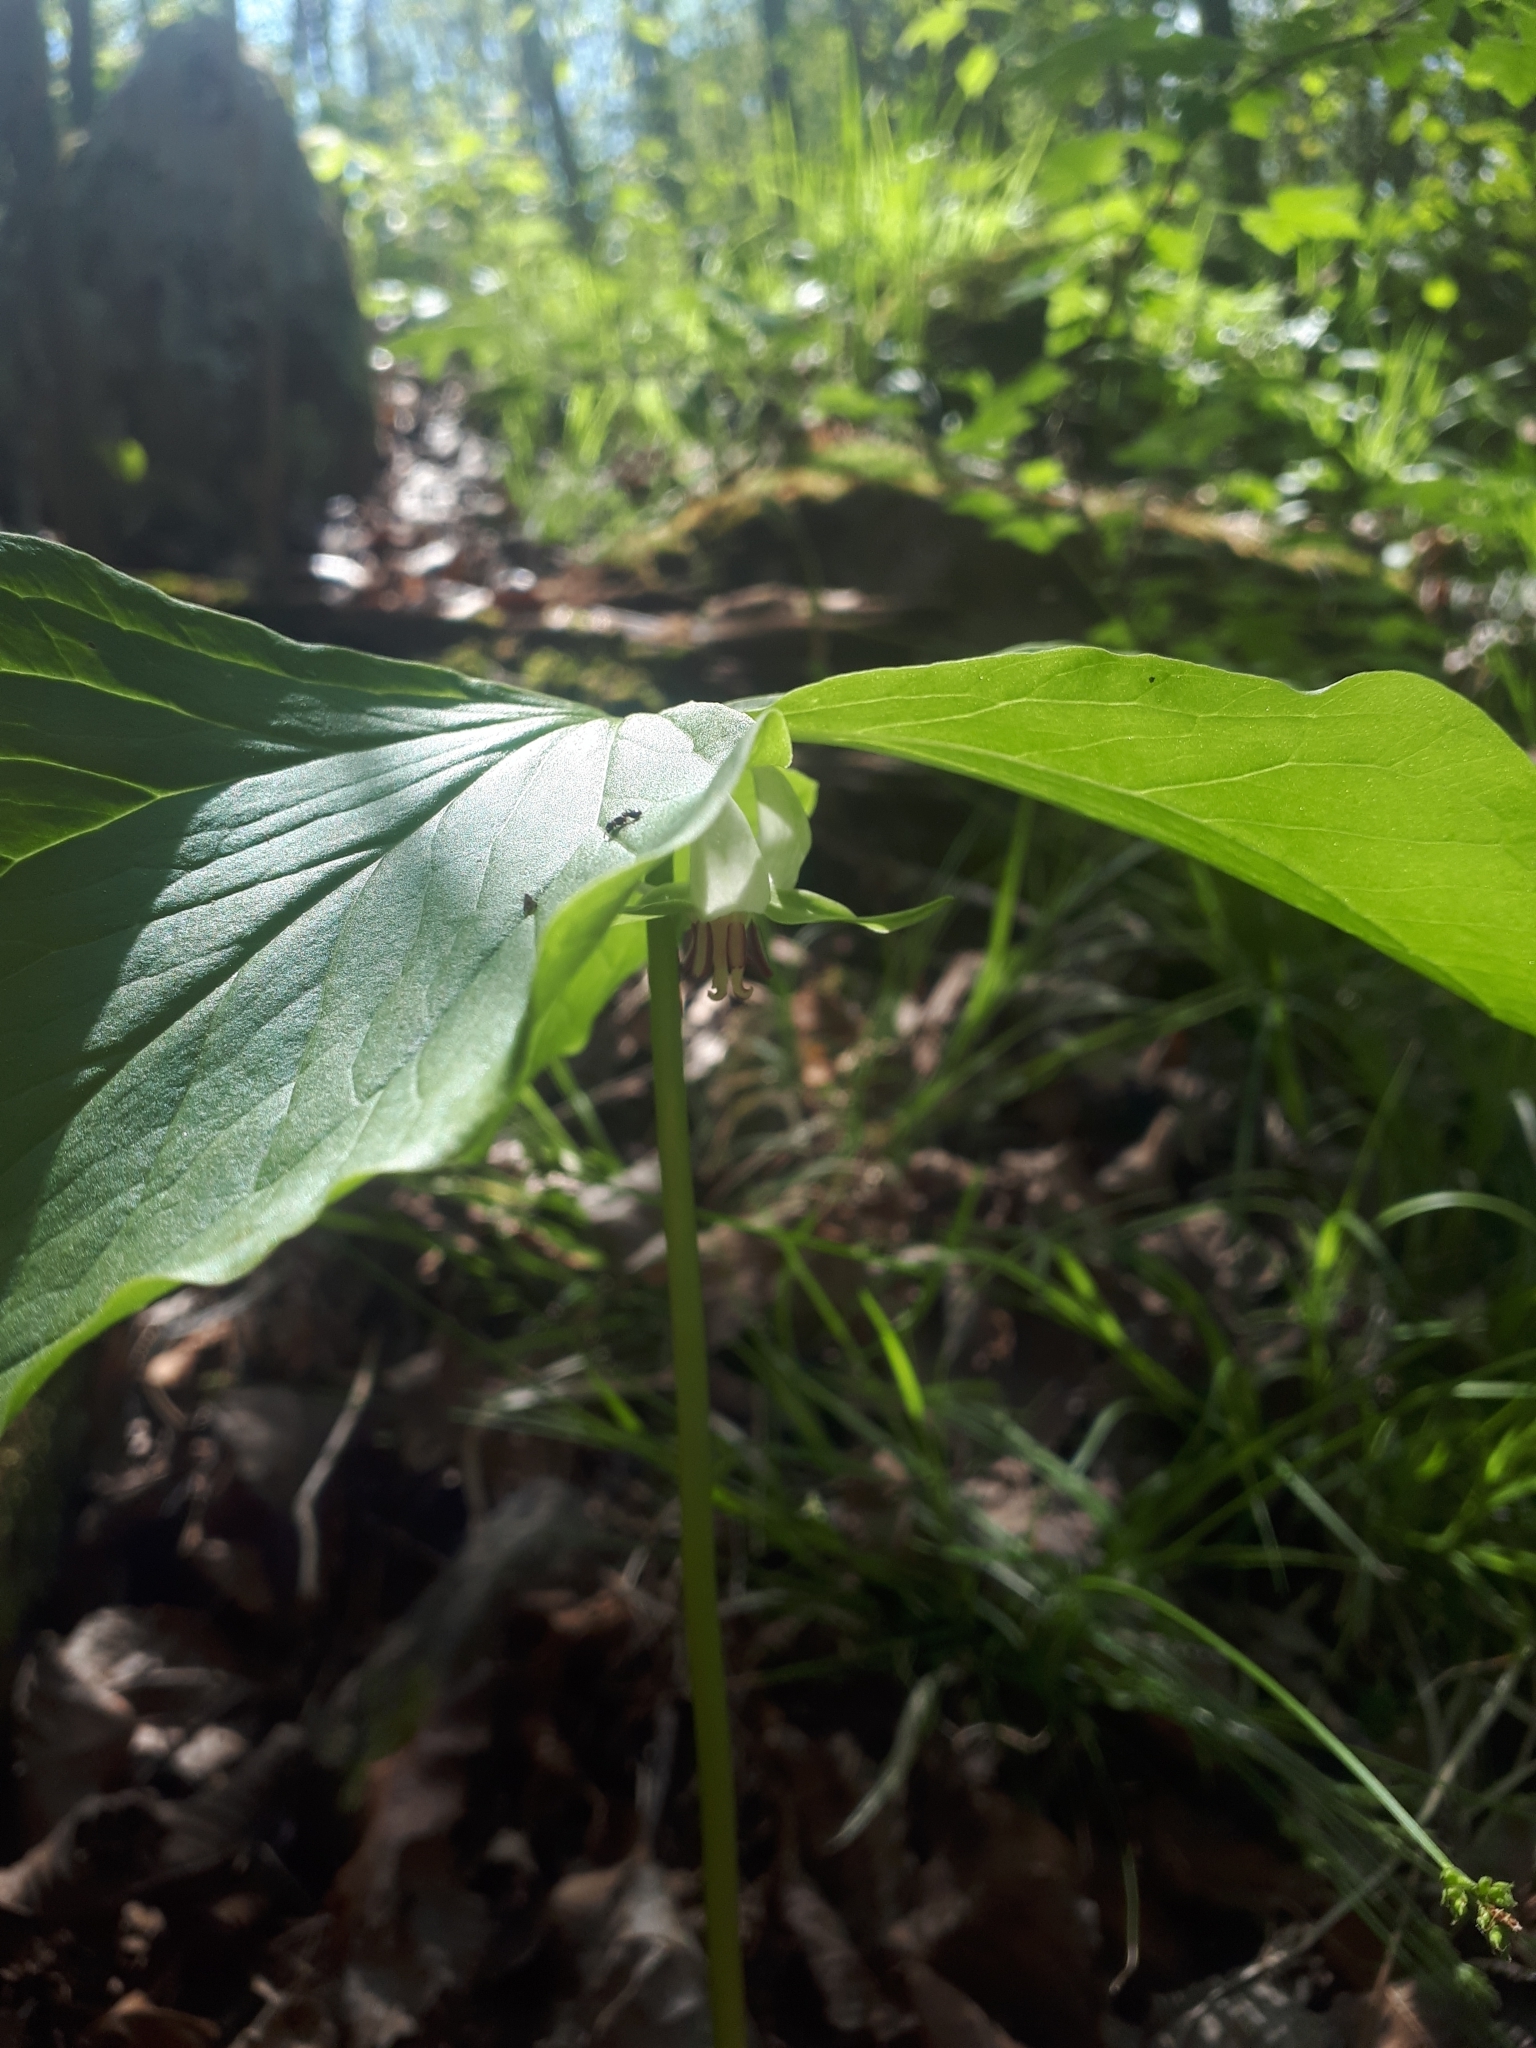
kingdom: Plantae
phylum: Tracheophyta
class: Liliopsida
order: Liliales
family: Melanthiaceae
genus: Trillium
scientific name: Trillium cernuum
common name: Nodding trillium
